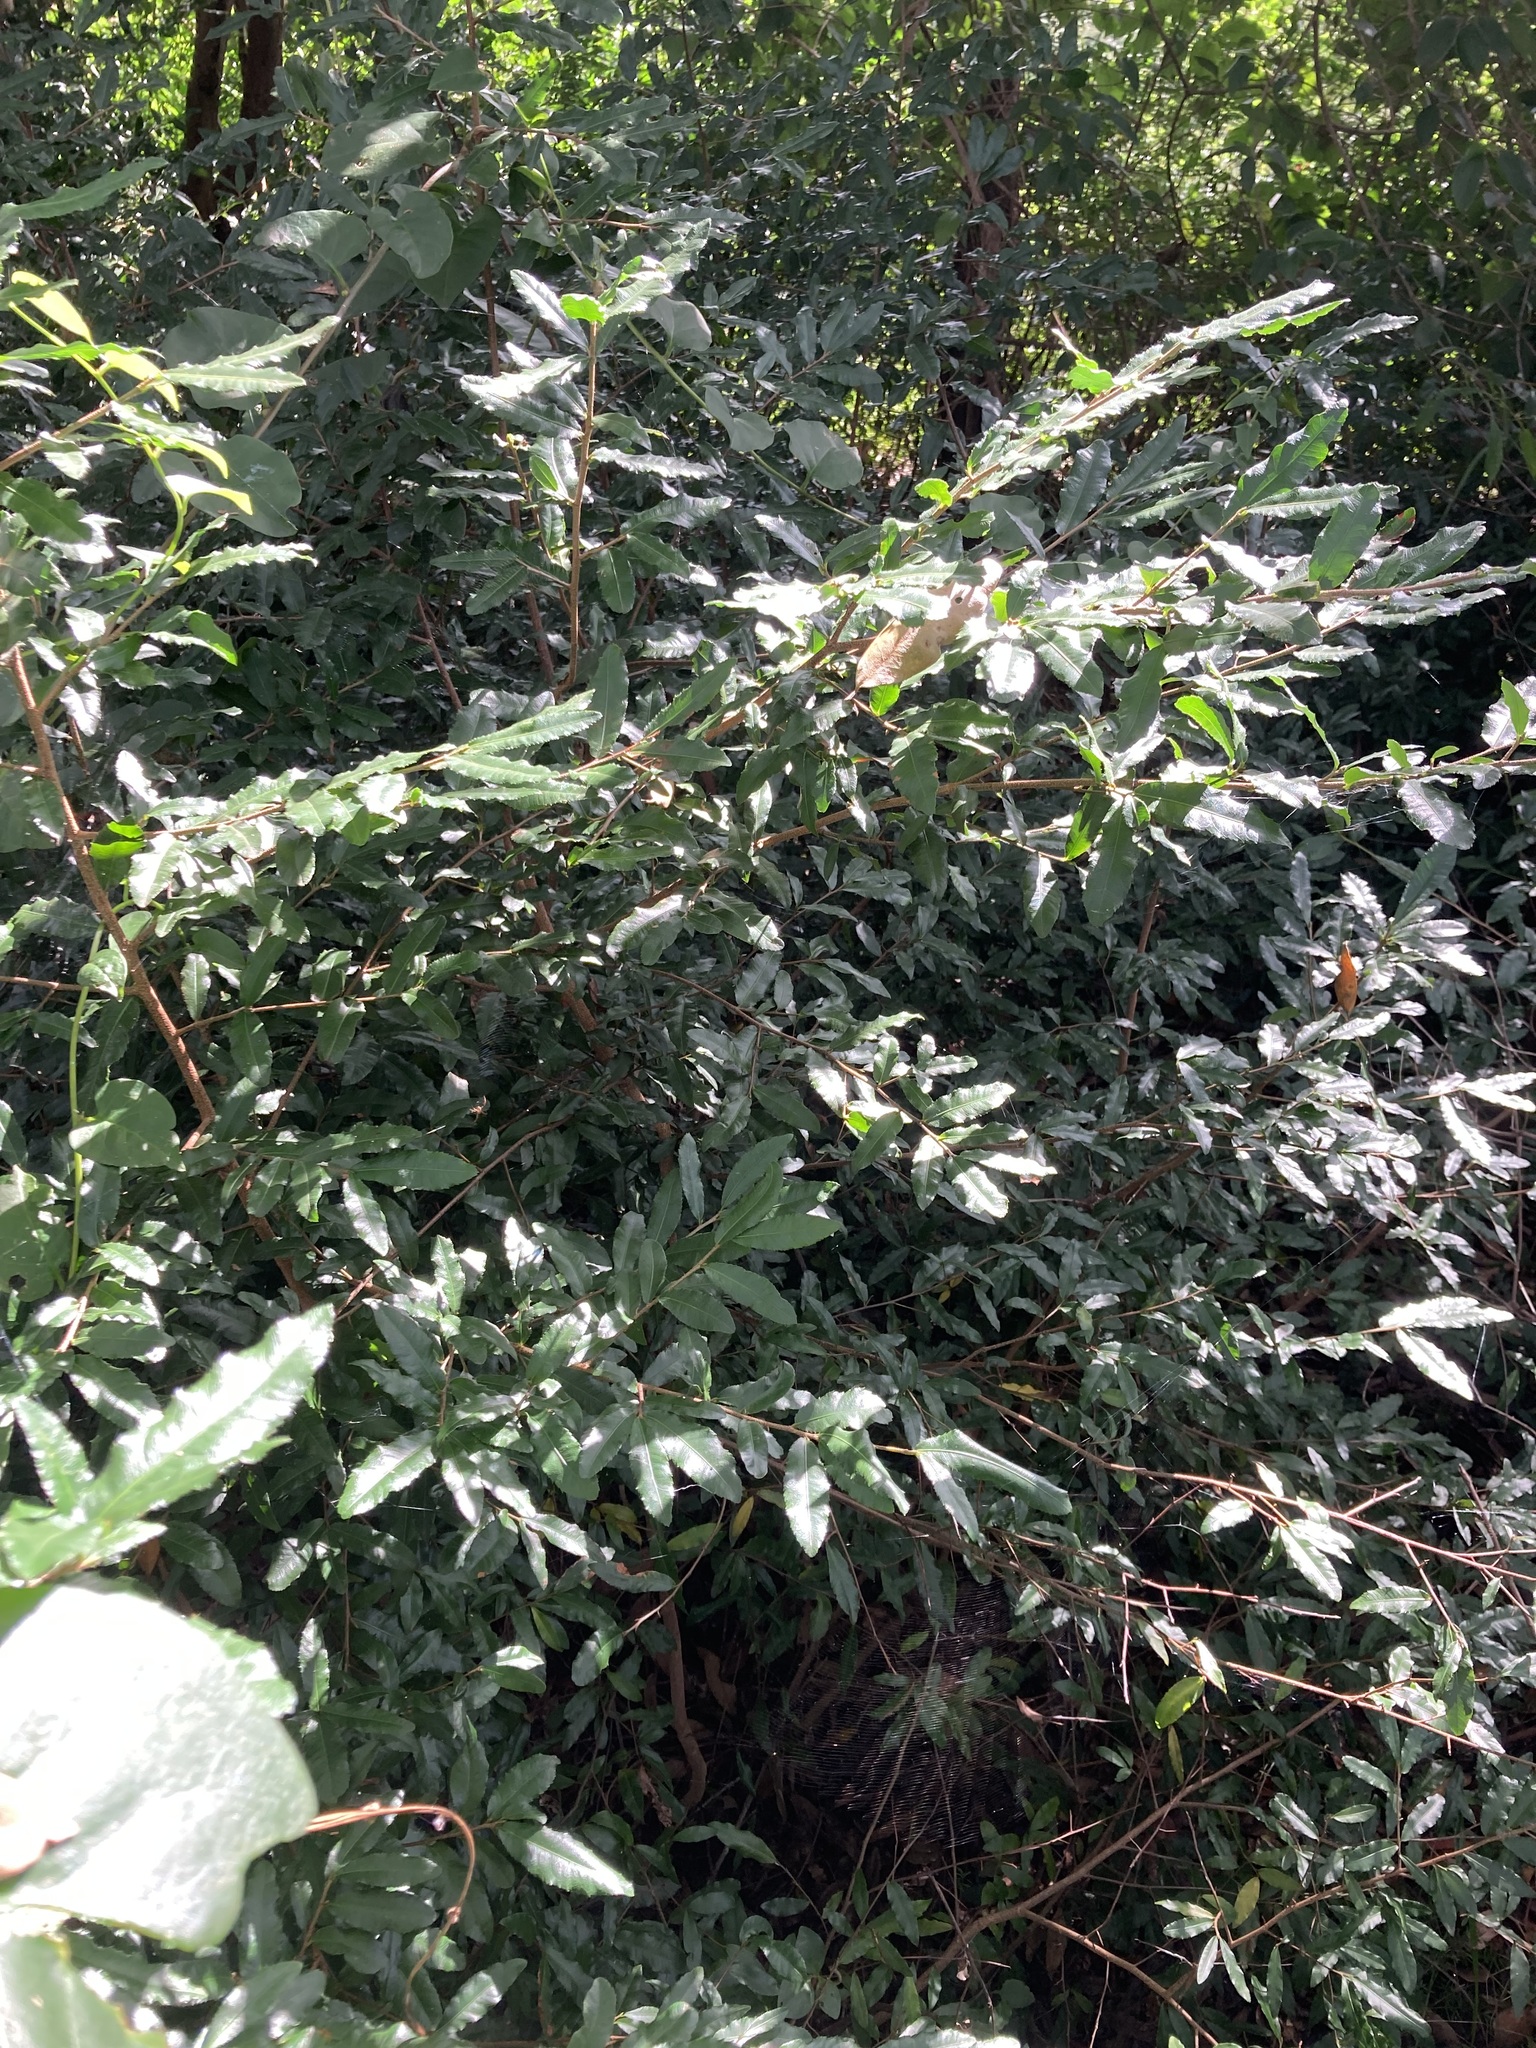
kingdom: Plantae
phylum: Tracheophyta
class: Magnoliopsida
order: Malpighiales
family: Ochnaceae
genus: Ochna
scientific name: Ochna serrulata
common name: Mickey mouse plant
